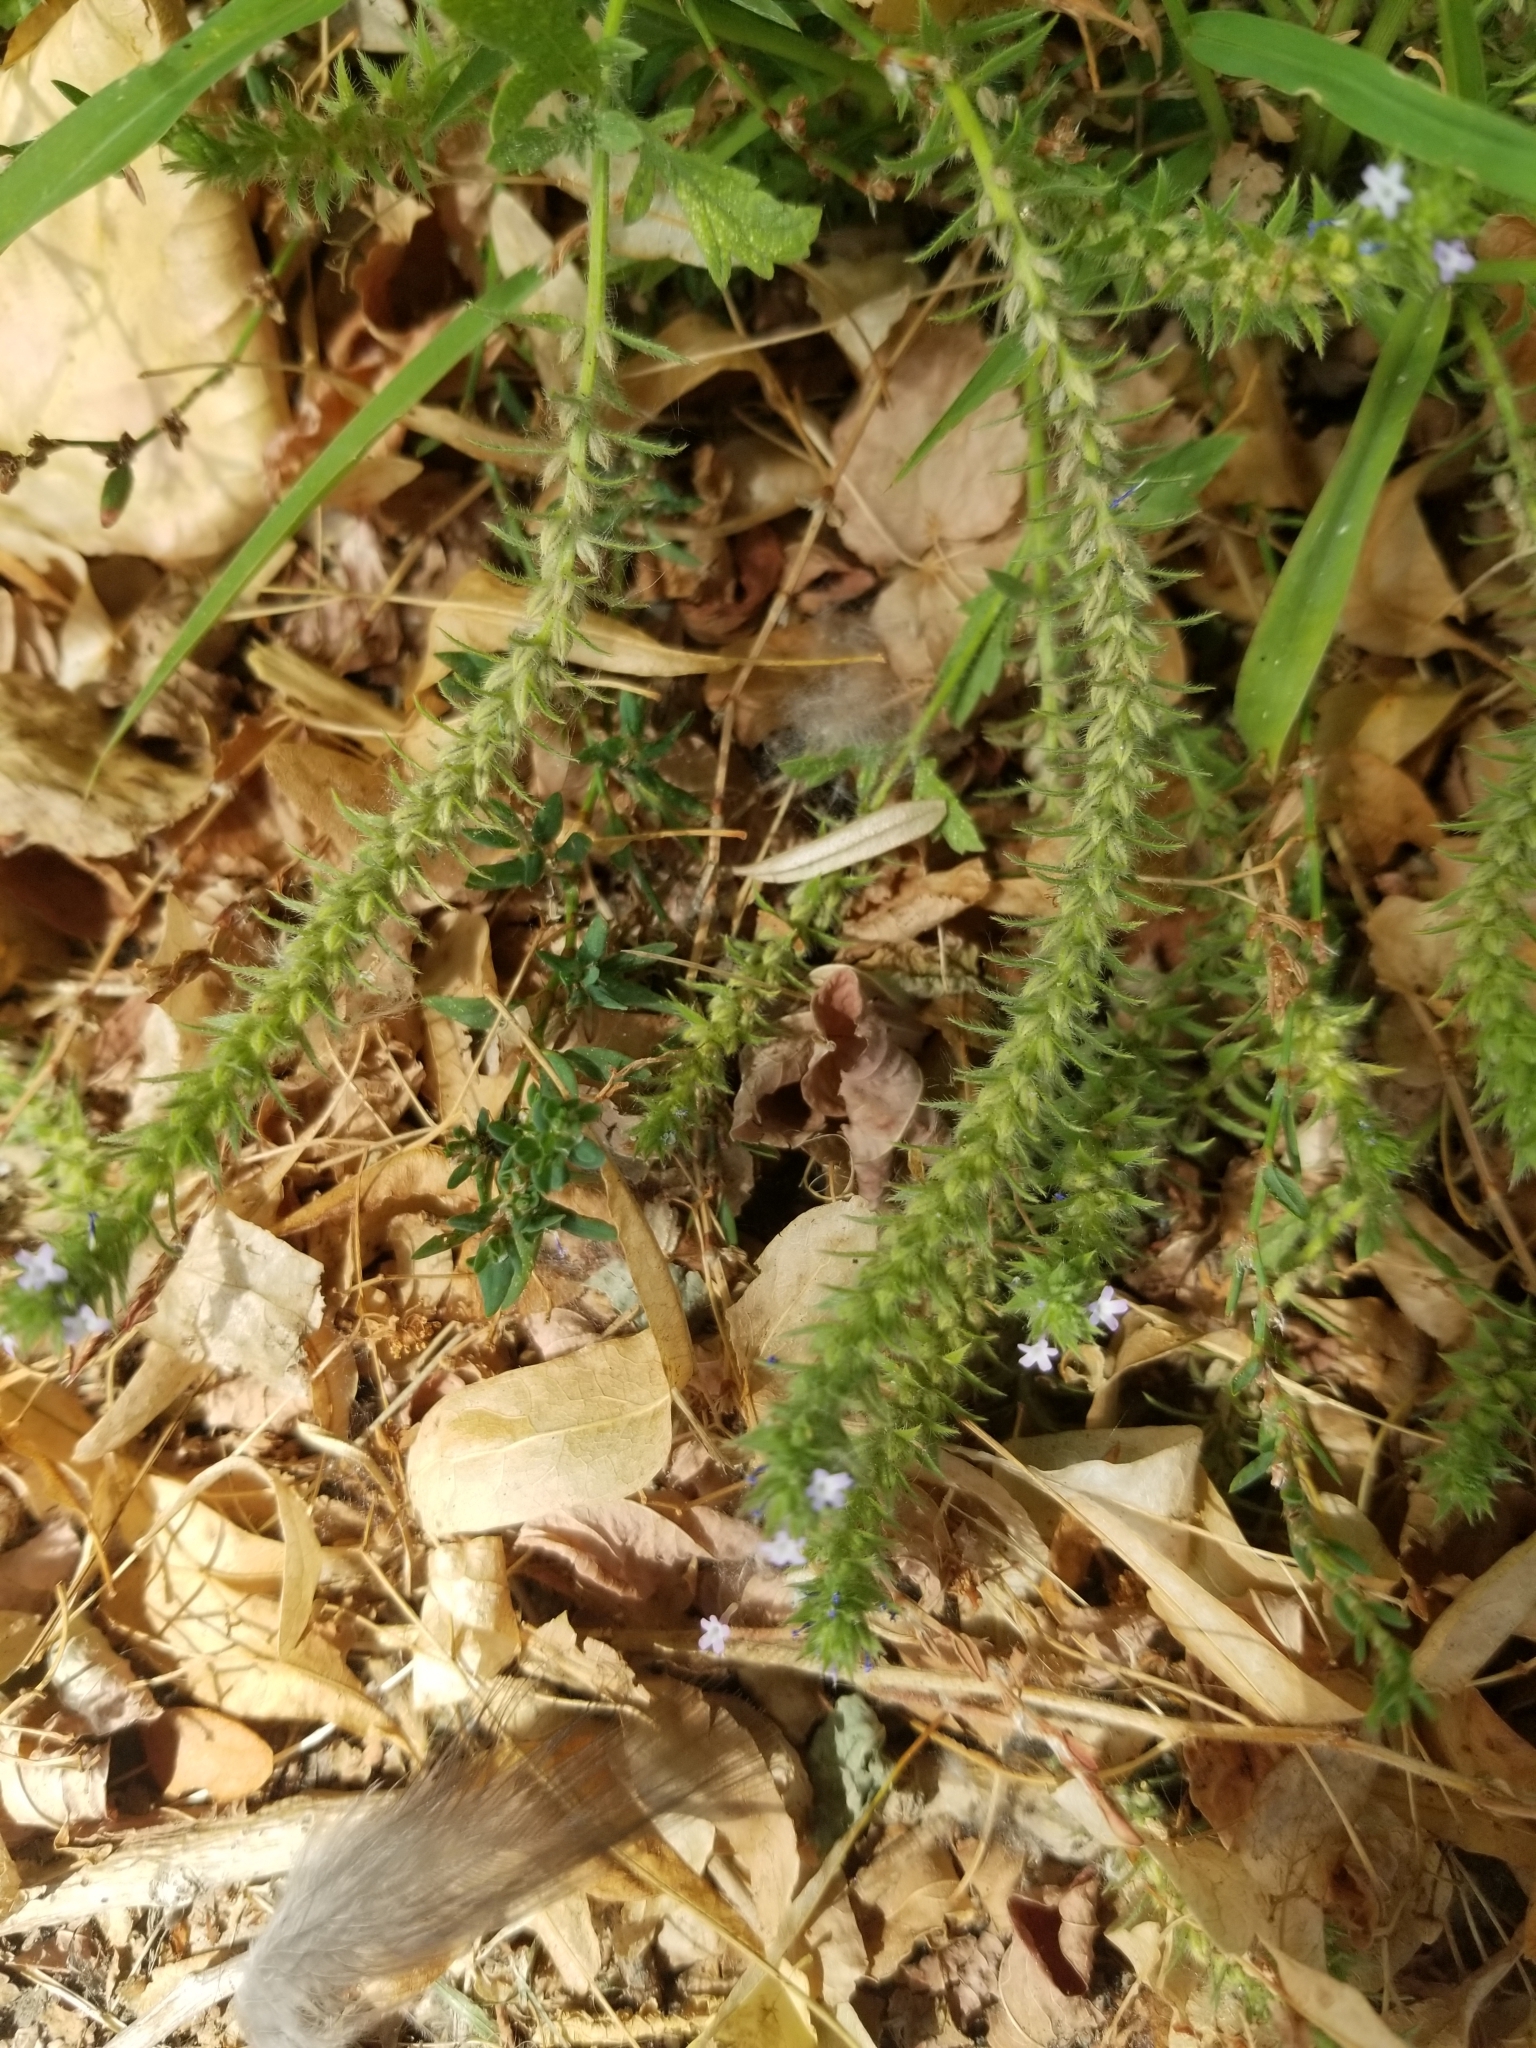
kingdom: Plantae
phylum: Tracheophyta
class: Magnoliopsida
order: Lamiales
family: Verbenaceae
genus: Verbena
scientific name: Verbena bracteata
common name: Bracted vervain
